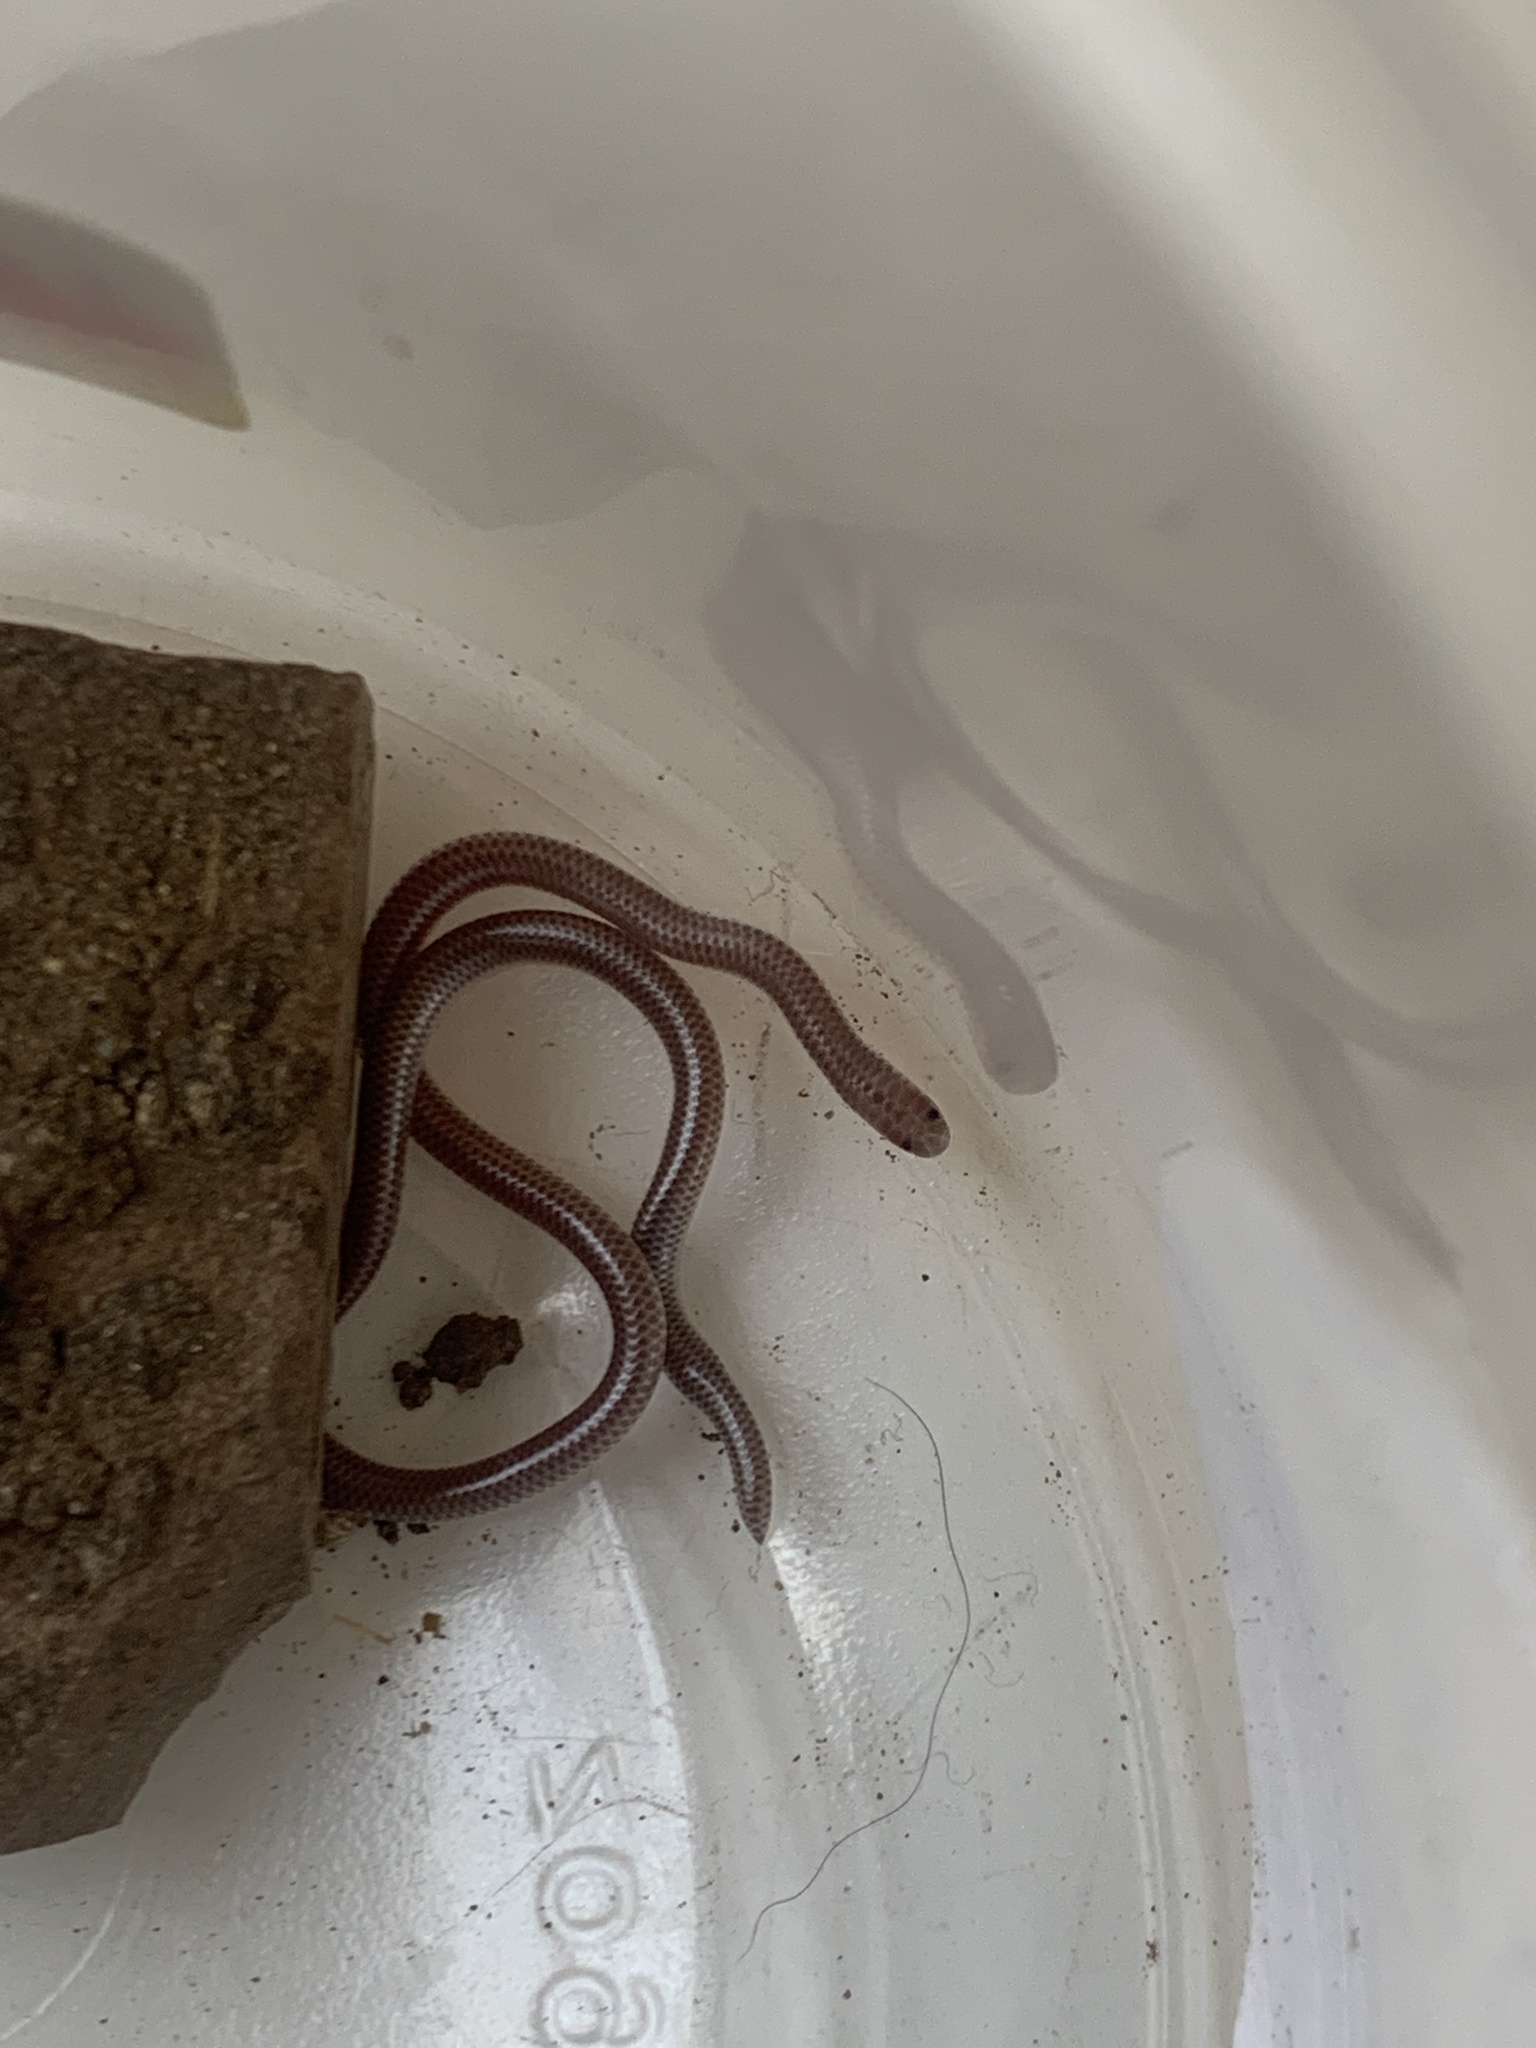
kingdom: Animalia
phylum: Chordata
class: Squamata
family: Leptotyphlopidae
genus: Rena
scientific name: Rena humilis
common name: Western threadsnake
